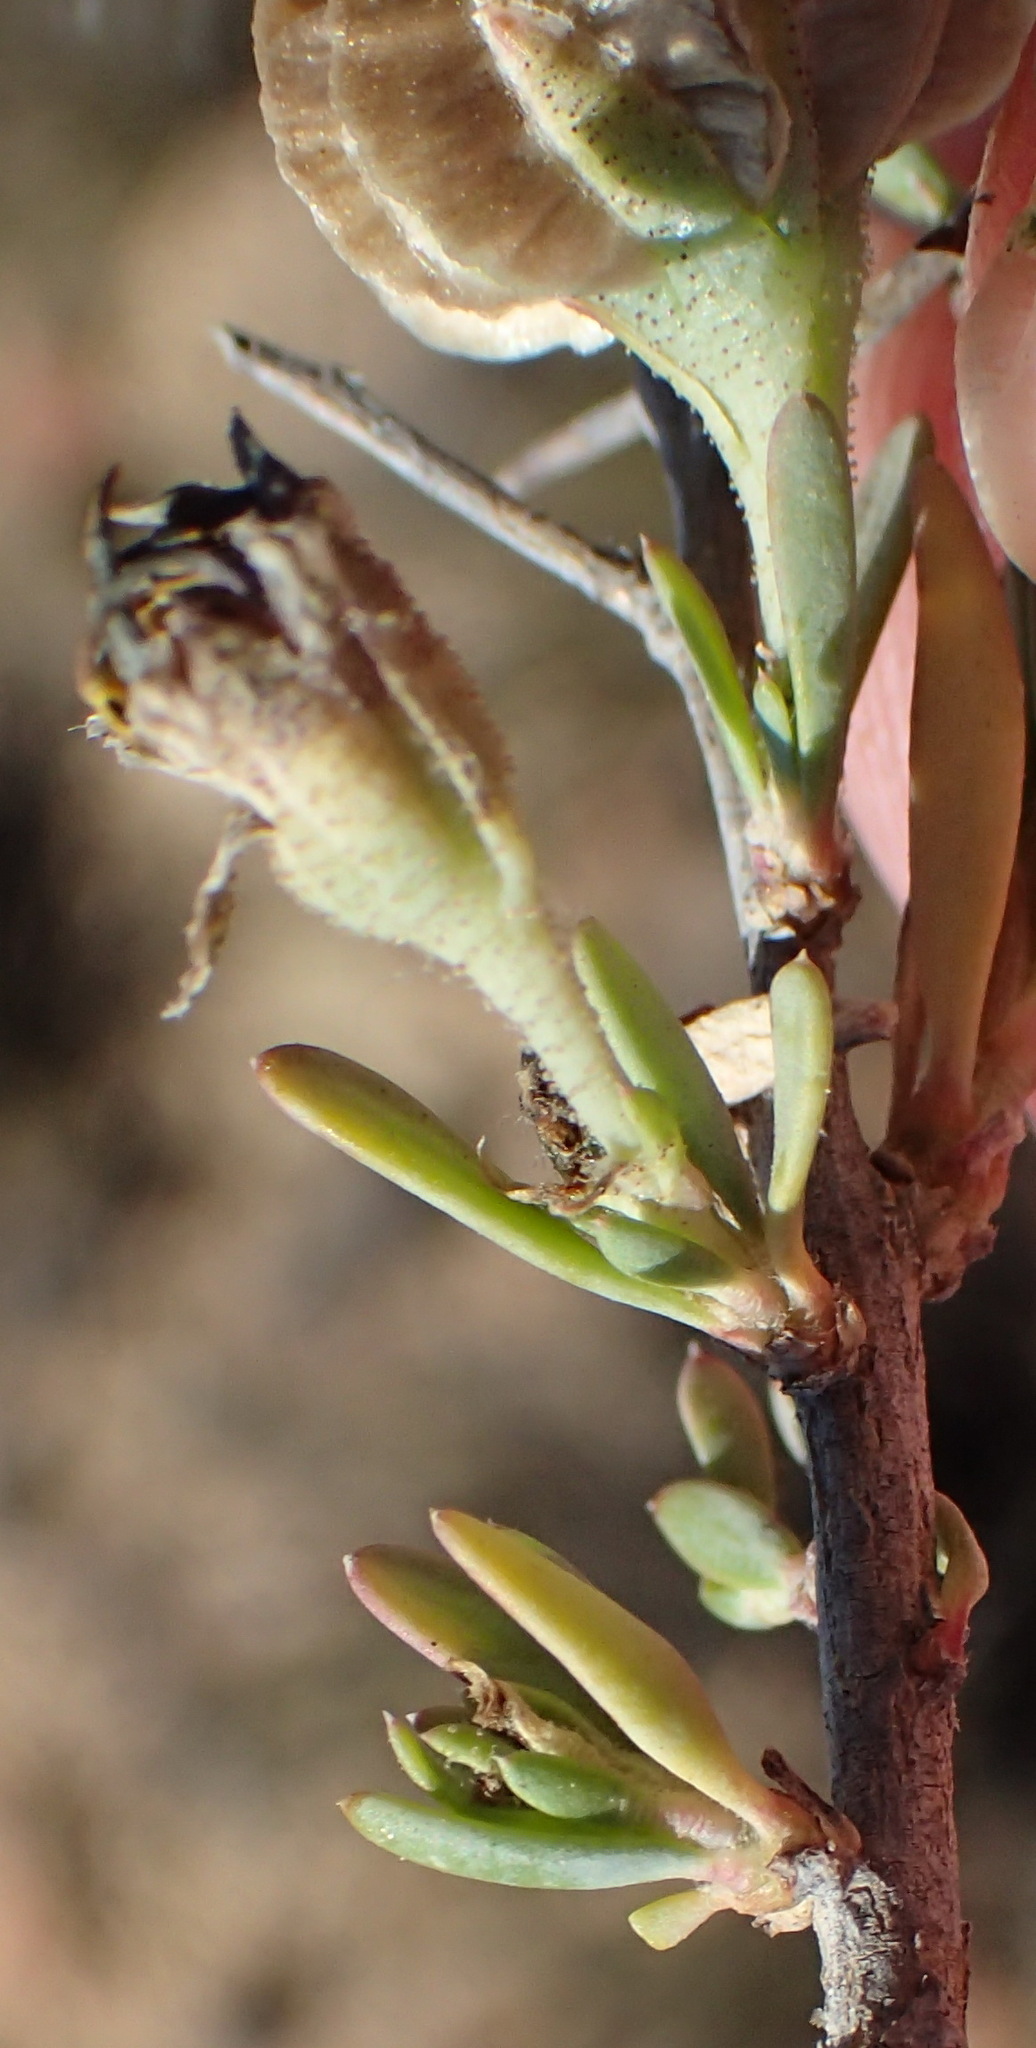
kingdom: Plantae
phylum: Tracheophyta
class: Magnoliopsida
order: Asterales
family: Asteraceae
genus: Osteospermum
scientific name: Osteospermum spinescens
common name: Sunflower
